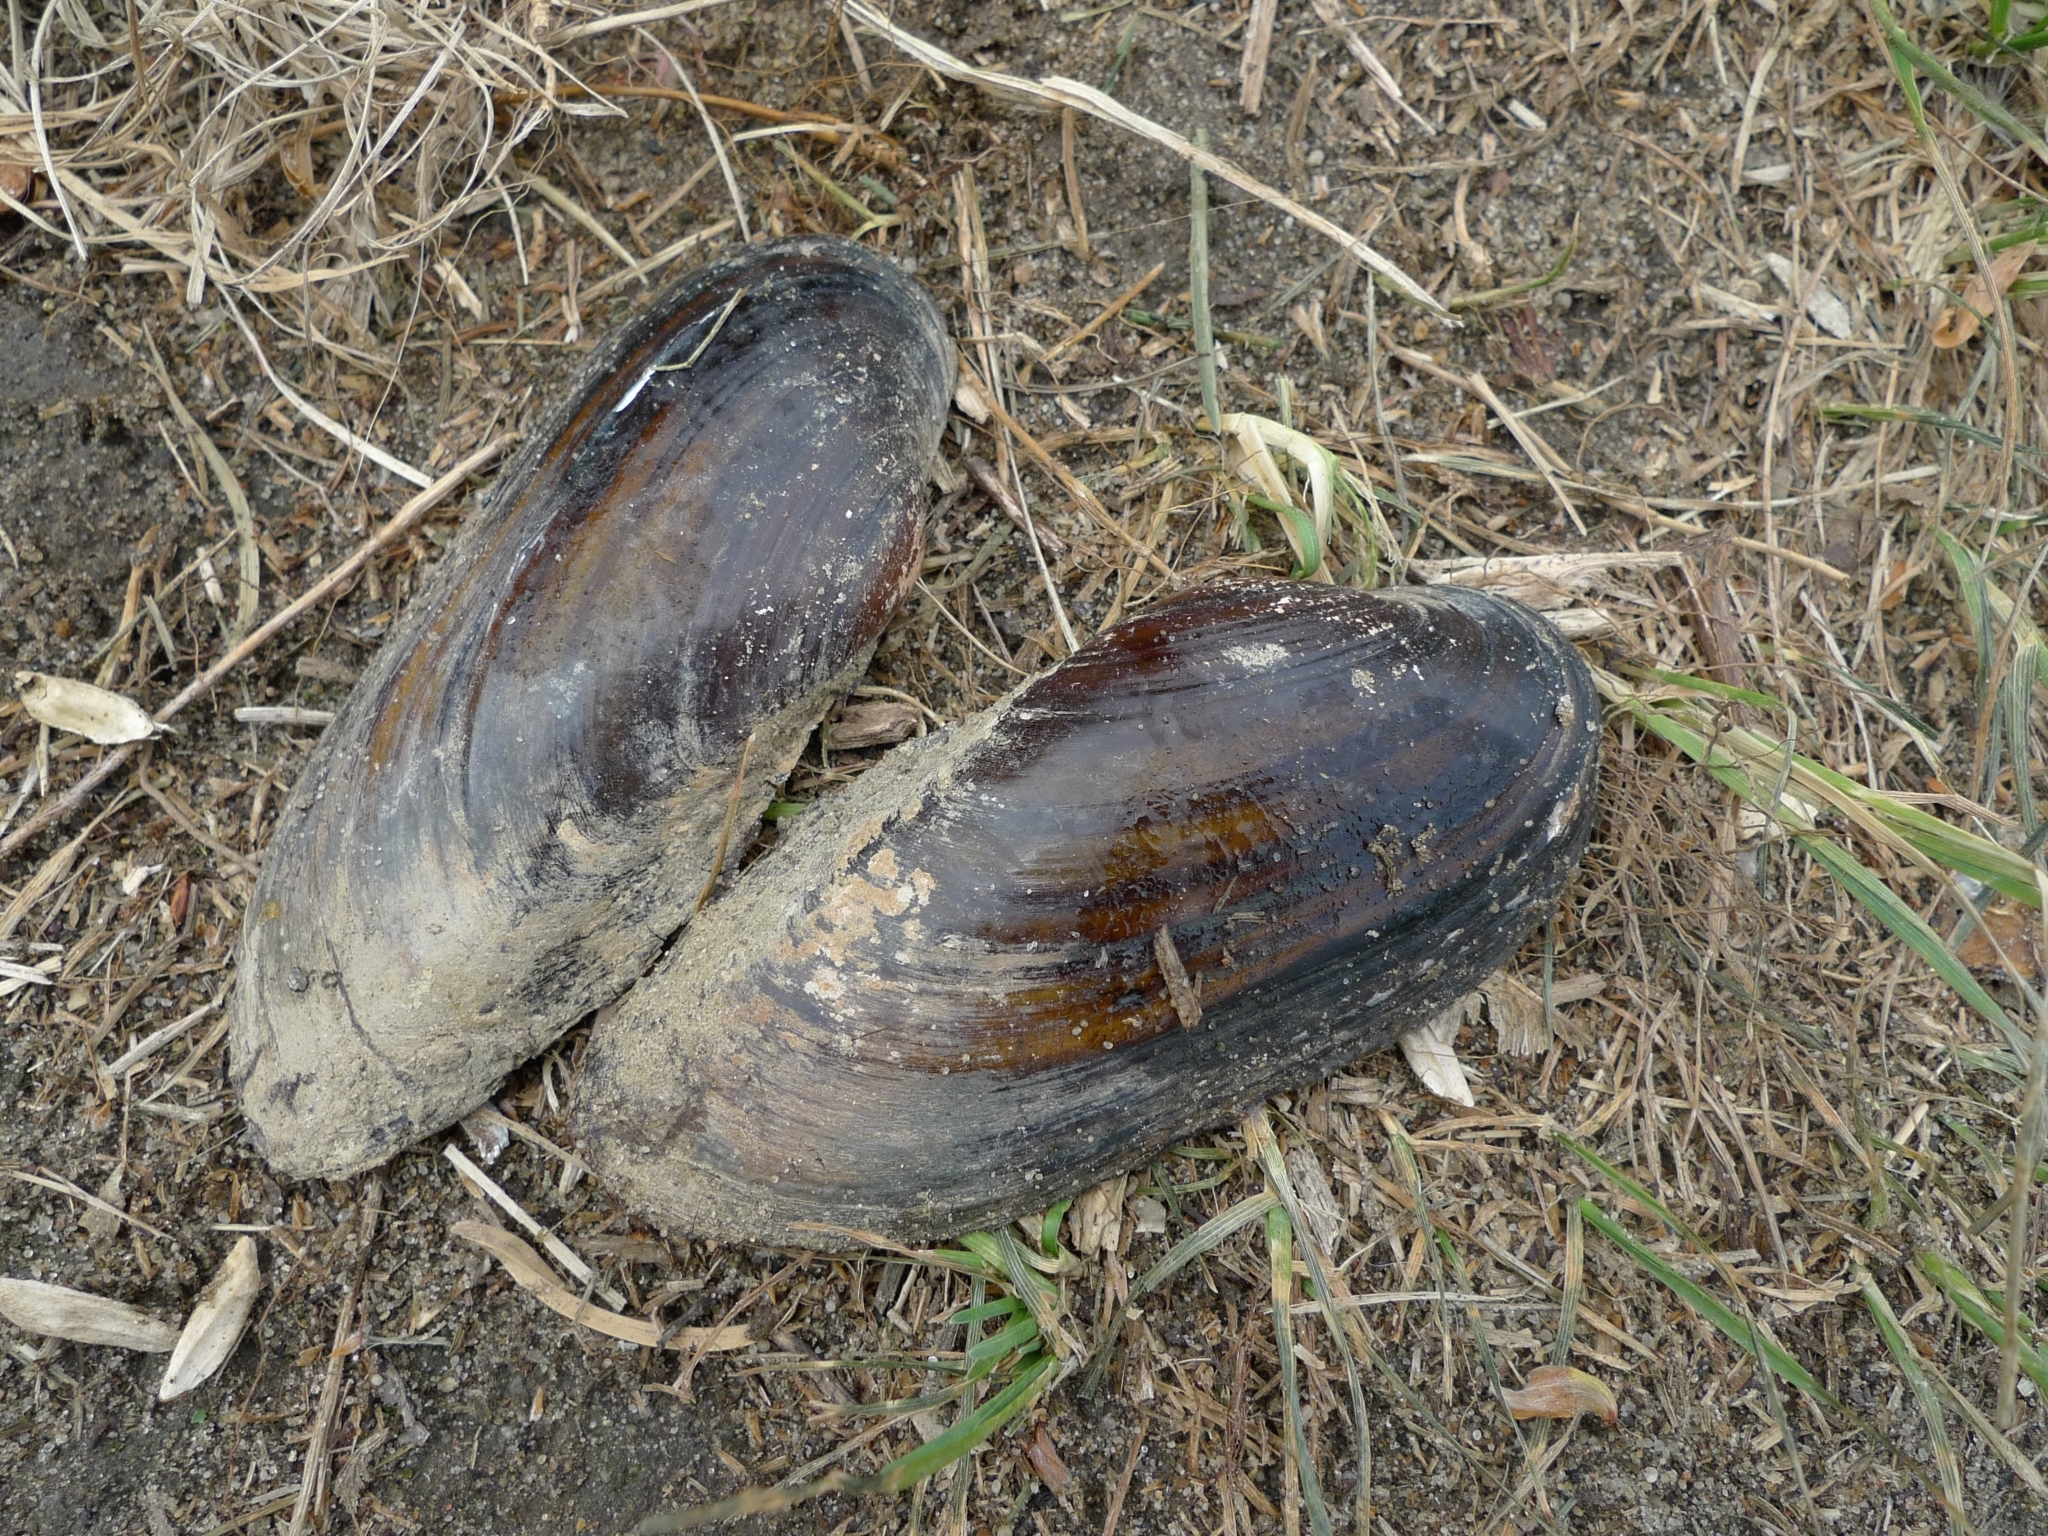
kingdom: Animalia
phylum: Mollusca
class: Bivalvia
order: Unionida
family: Unionidae
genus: Unio
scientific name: Unio pictorum
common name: Painter's mussel
